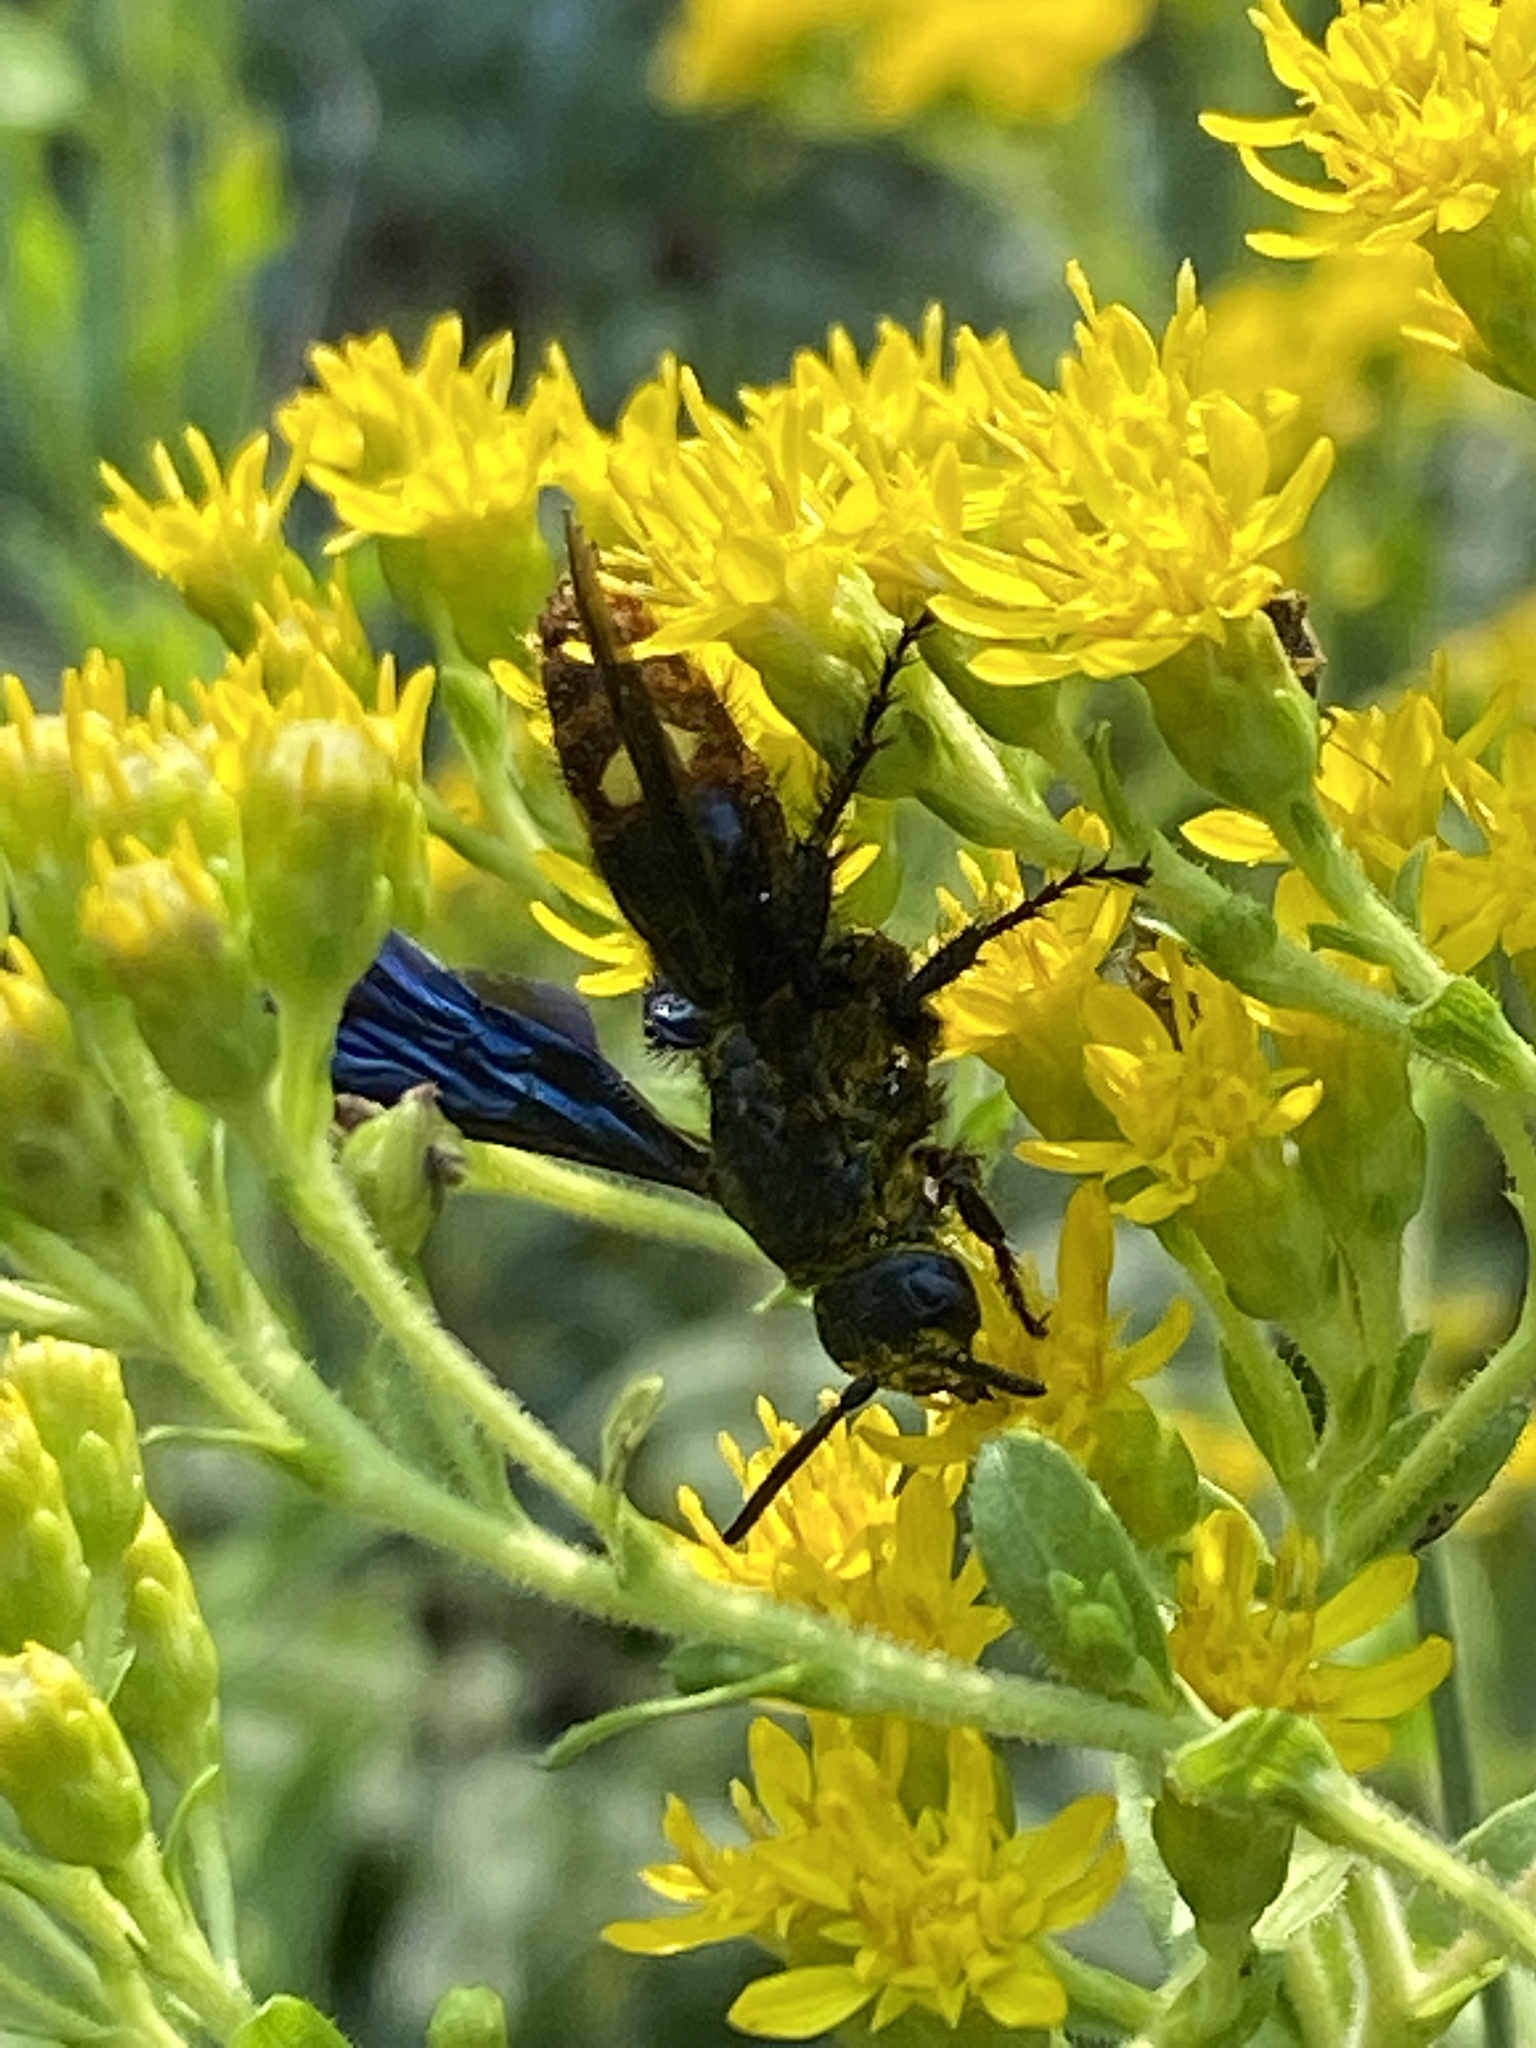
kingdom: Animalia
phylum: Arthropoda
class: Insecta
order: Hymenoptera
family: Scoliidae
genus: Scolia
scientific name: Scolia dubia
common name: Blue-winged scoliid wasp
